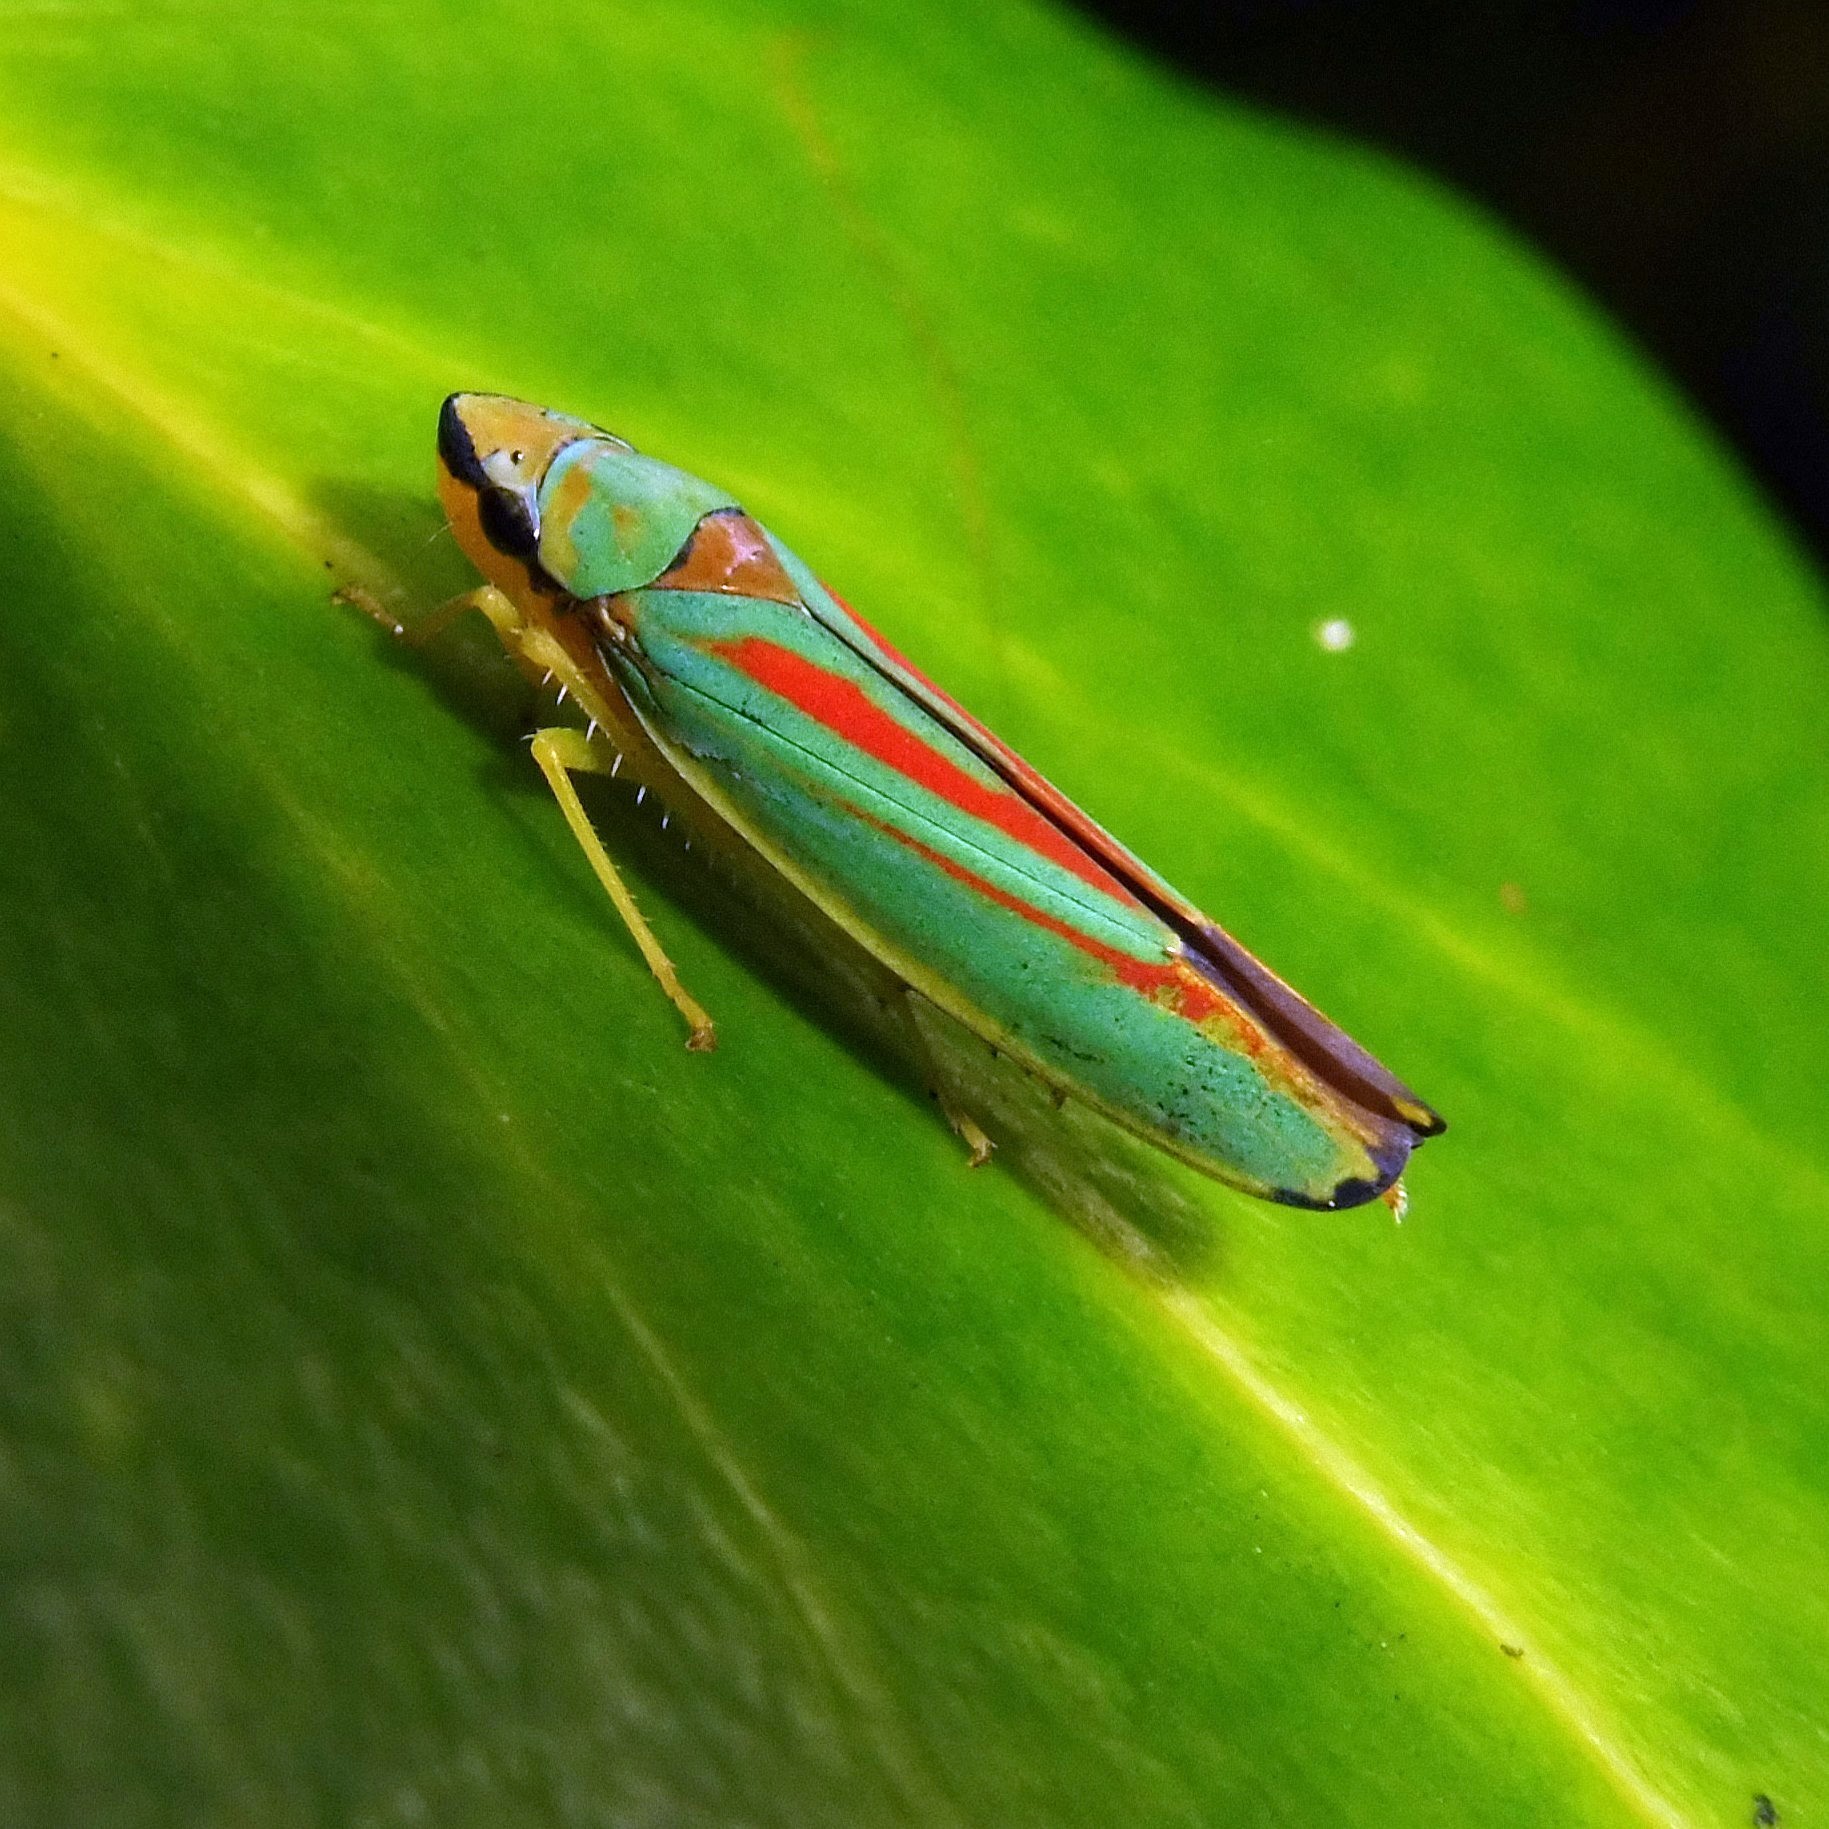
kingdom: Animalia
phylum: Arthropoda
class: Insecta
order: Hemiptera
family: Cicadellidae
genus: Graphocephala
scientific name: Graphocephala fennahi
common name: Rhododendron leafhopper
